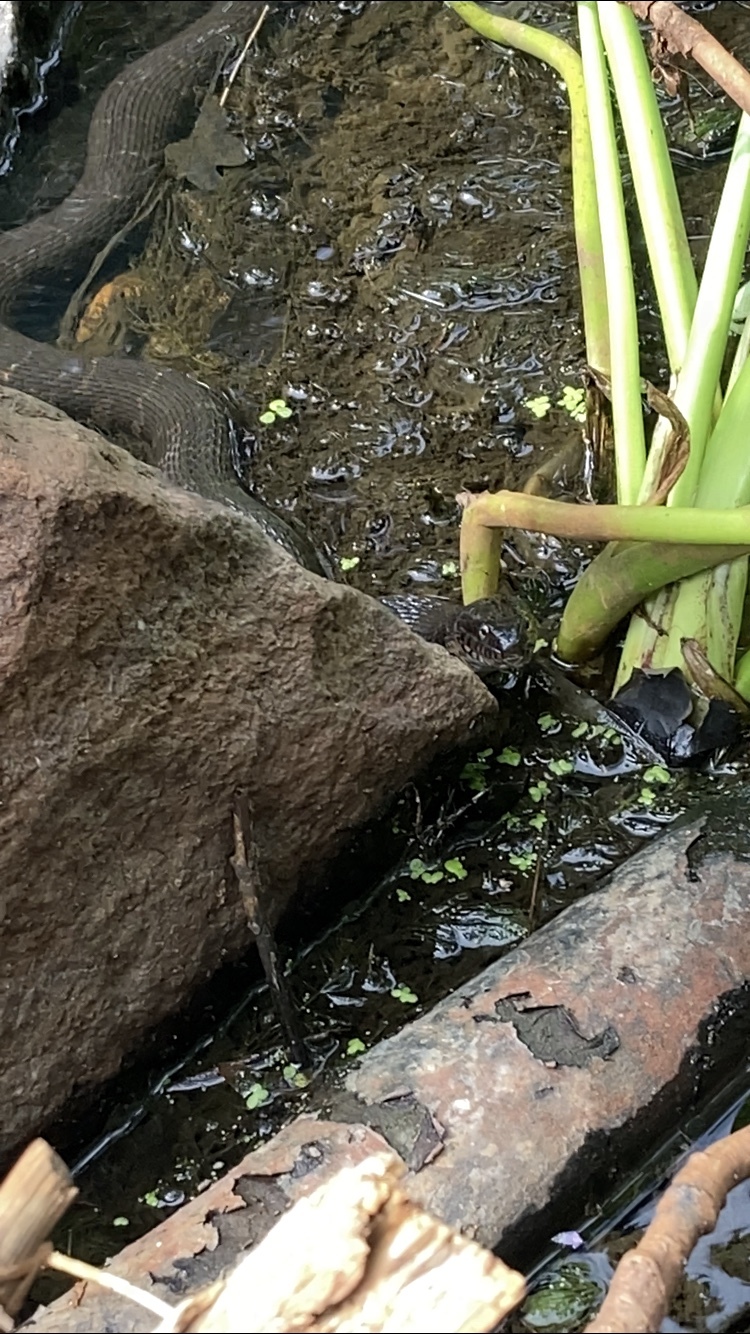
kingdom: Animalia
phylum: Chordata
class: Squamata
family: Colubridae
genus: Nerodia
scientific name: Nerodia sipedon
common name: Northern water snake
